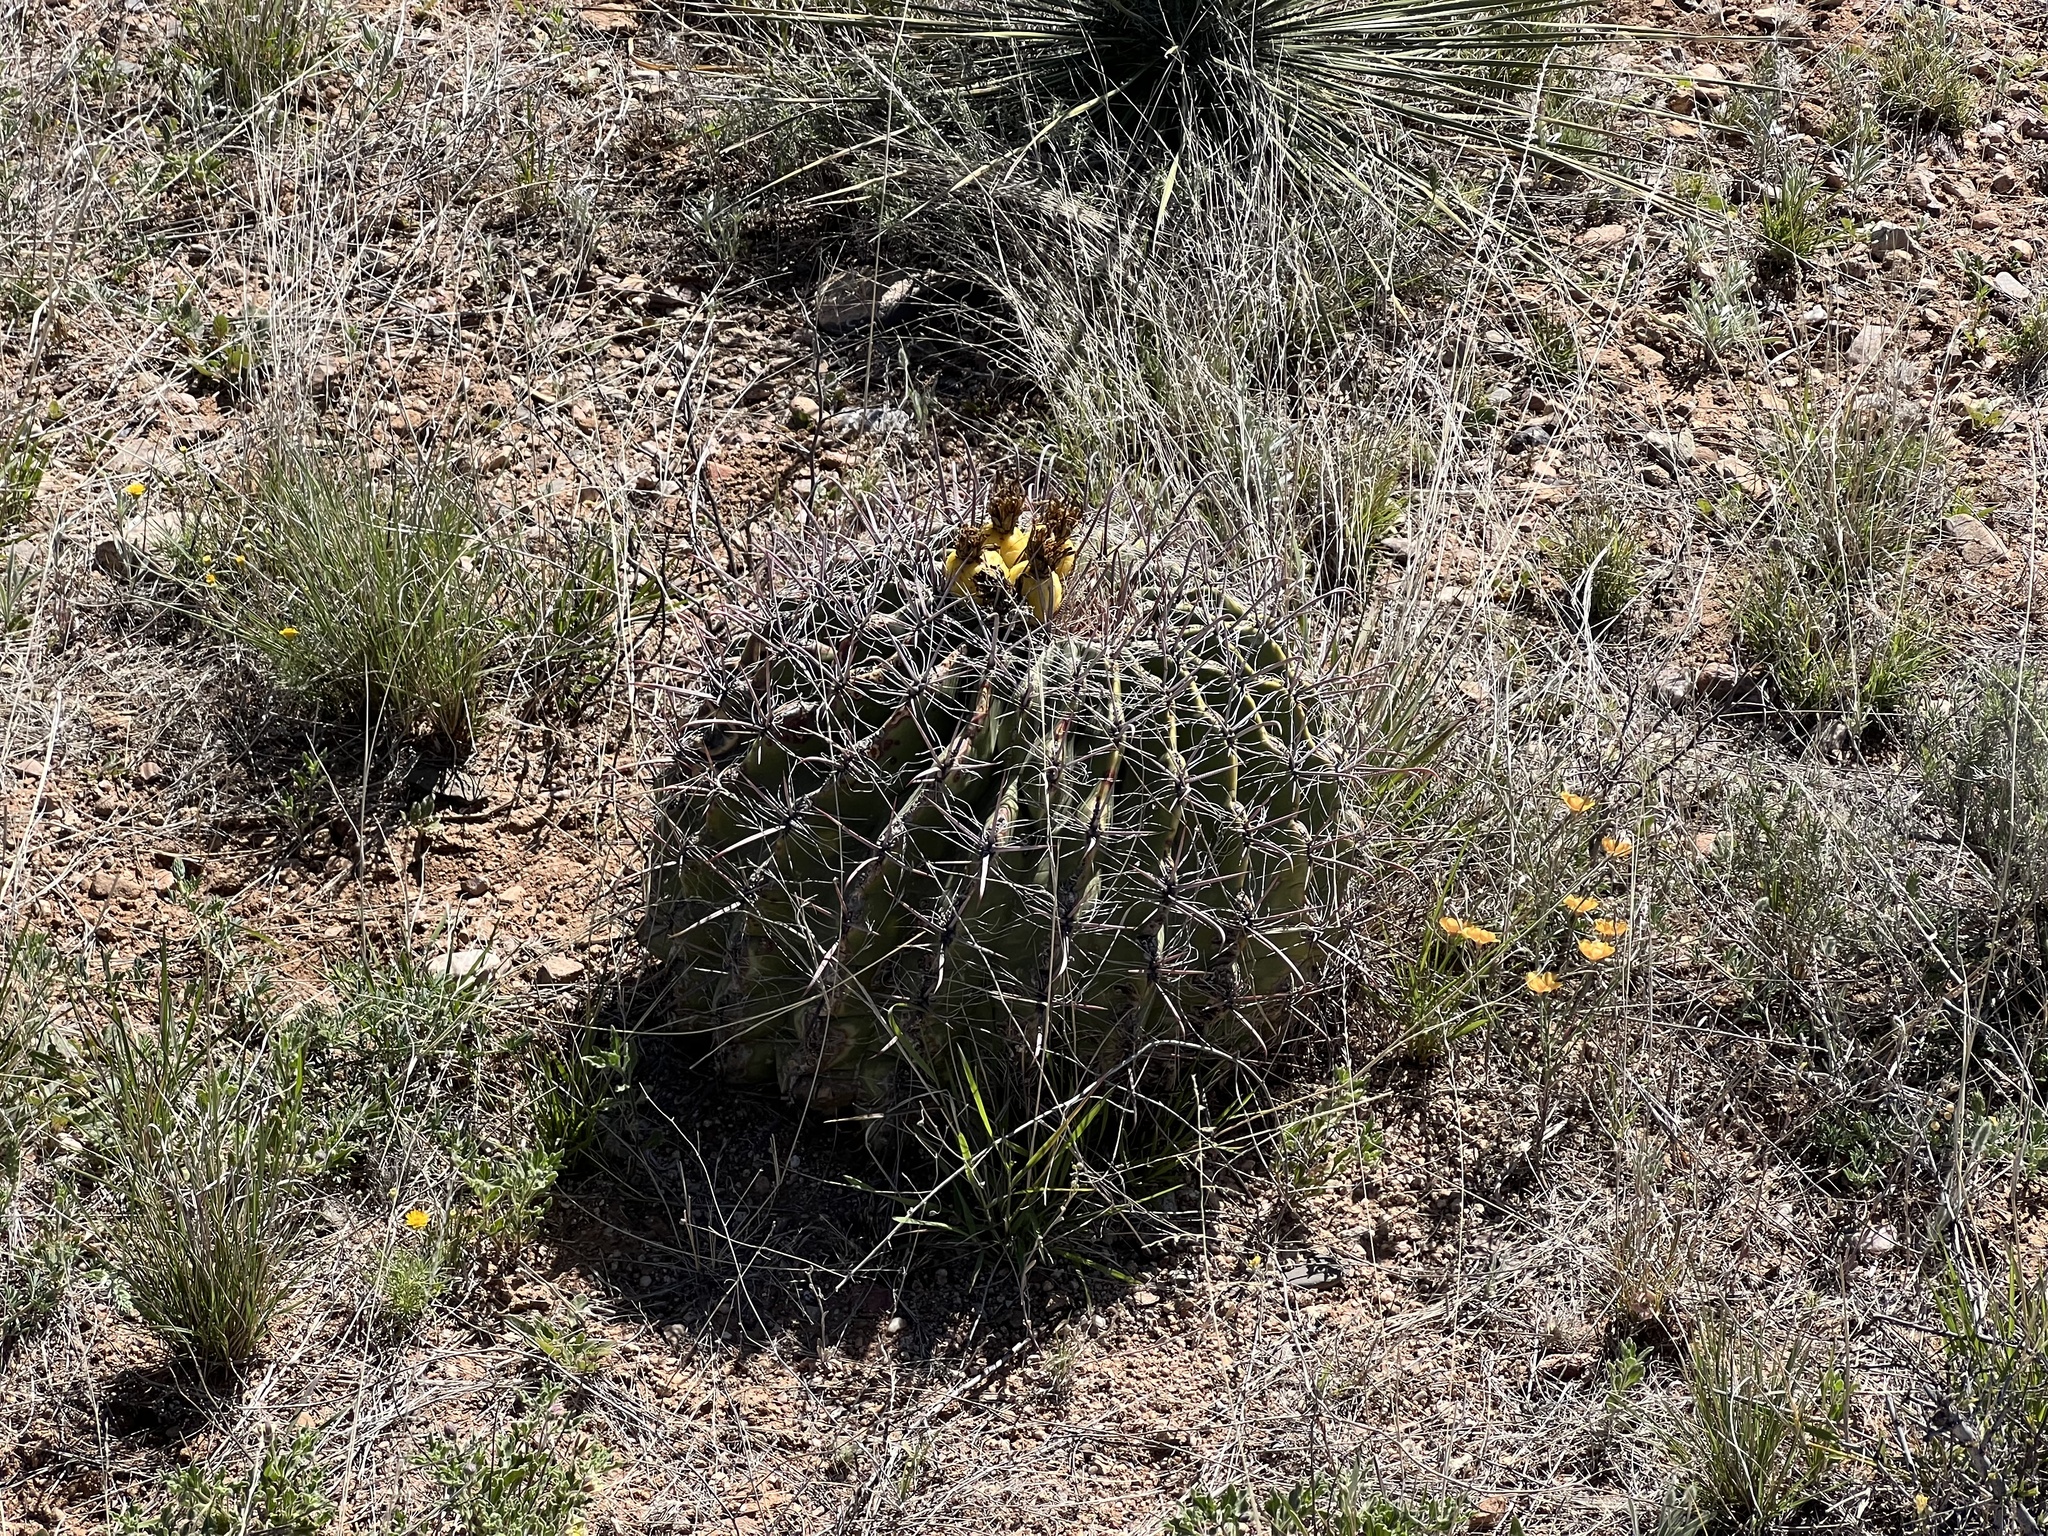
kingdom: Plantae
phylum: Tracheophyta
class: Magnoliopsida
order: Caryophyllales
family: Cactaceae
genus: Ferocactus
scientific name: Ferocactus wislizeni
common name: Candy barrel cactus
